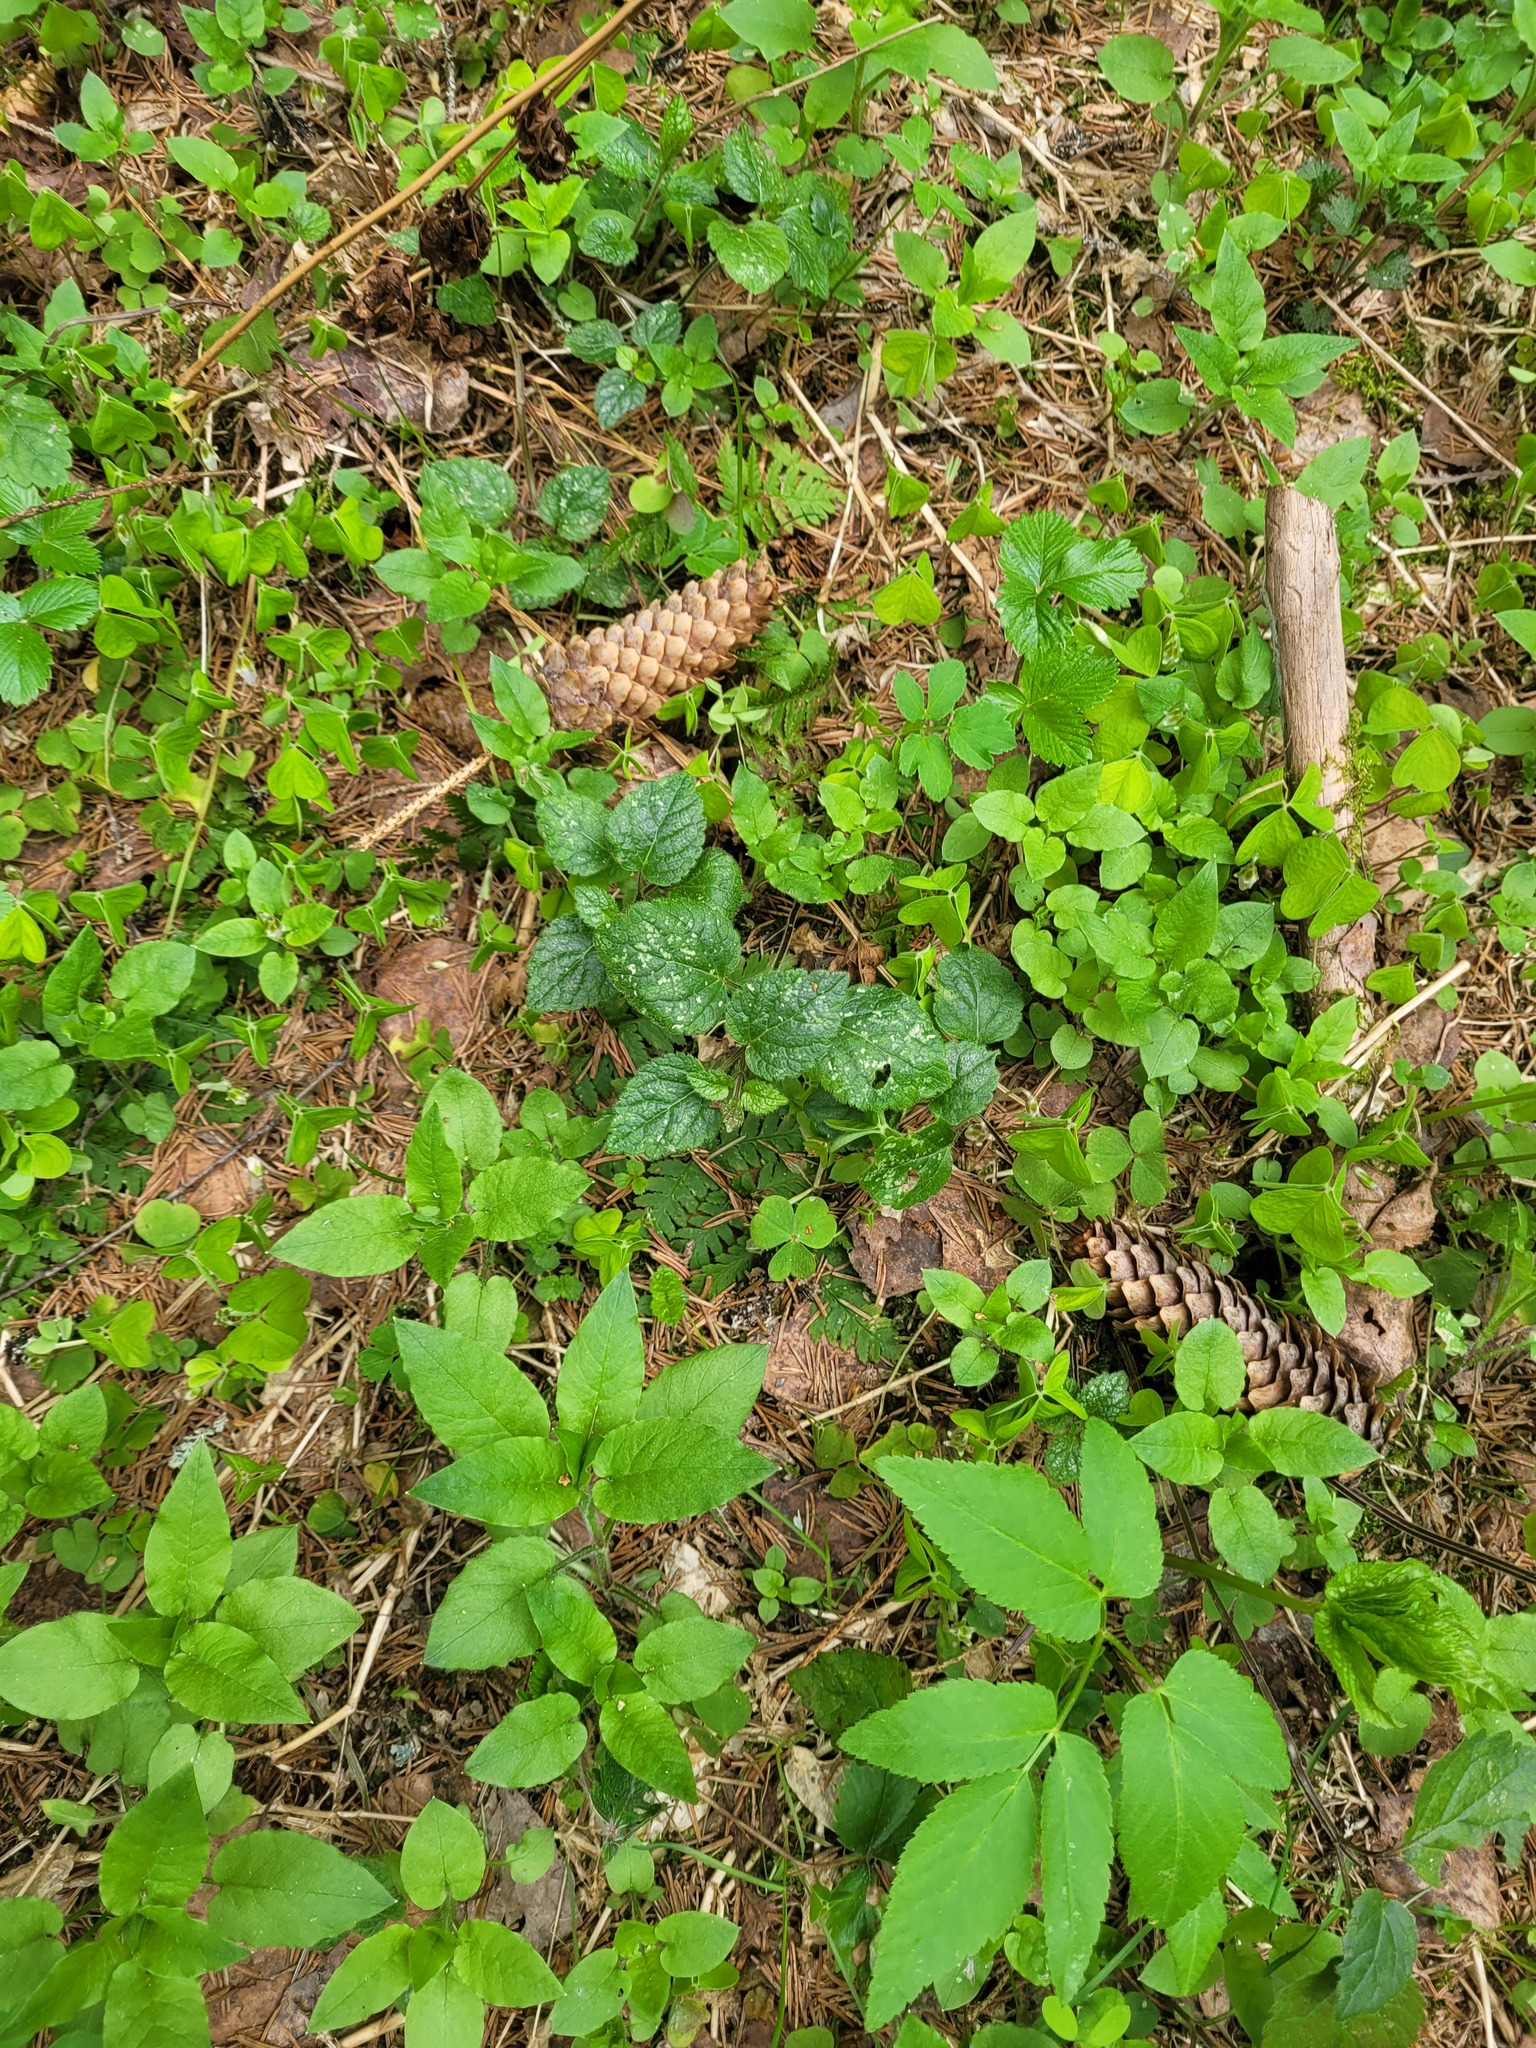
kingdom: Plantae
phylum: Tracheophyta
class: Magnoliopsida
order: Lamiales
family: Lamiaceae
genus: Lamium
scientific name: Lamium galeobdolon
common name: Yellow archangel
